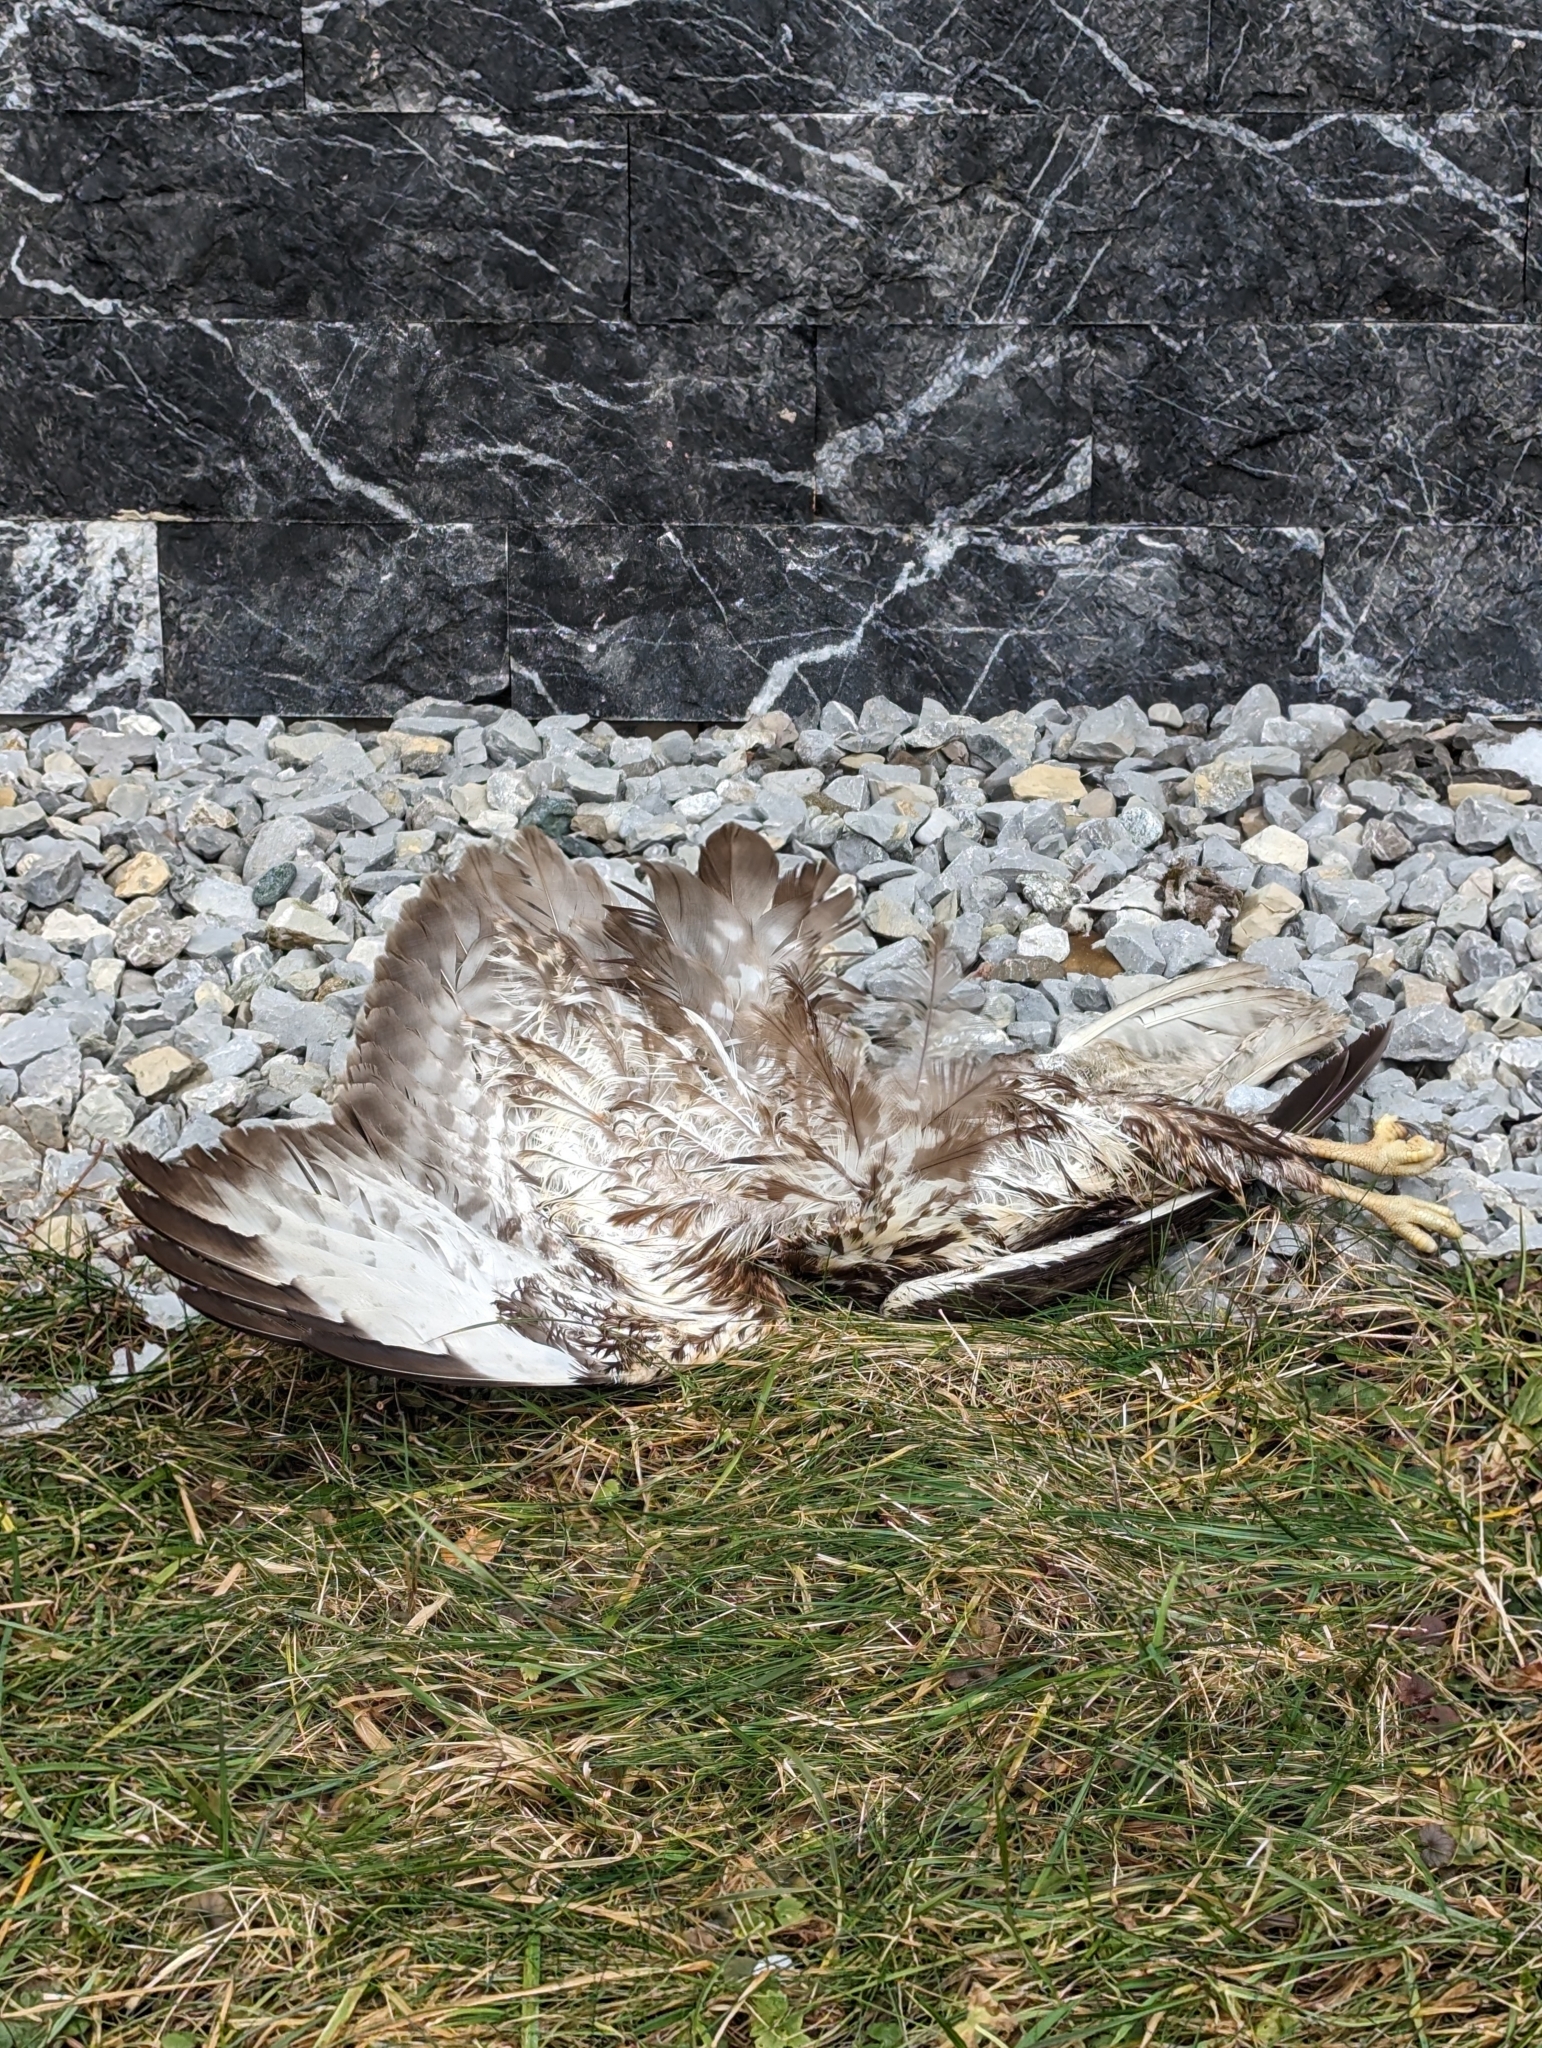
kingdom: Animalia
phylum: Chordata
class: Aves
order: Accipitriformes
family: Accipitridae
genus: Buteo
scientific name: Buteo buteo
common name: Common buzzard
